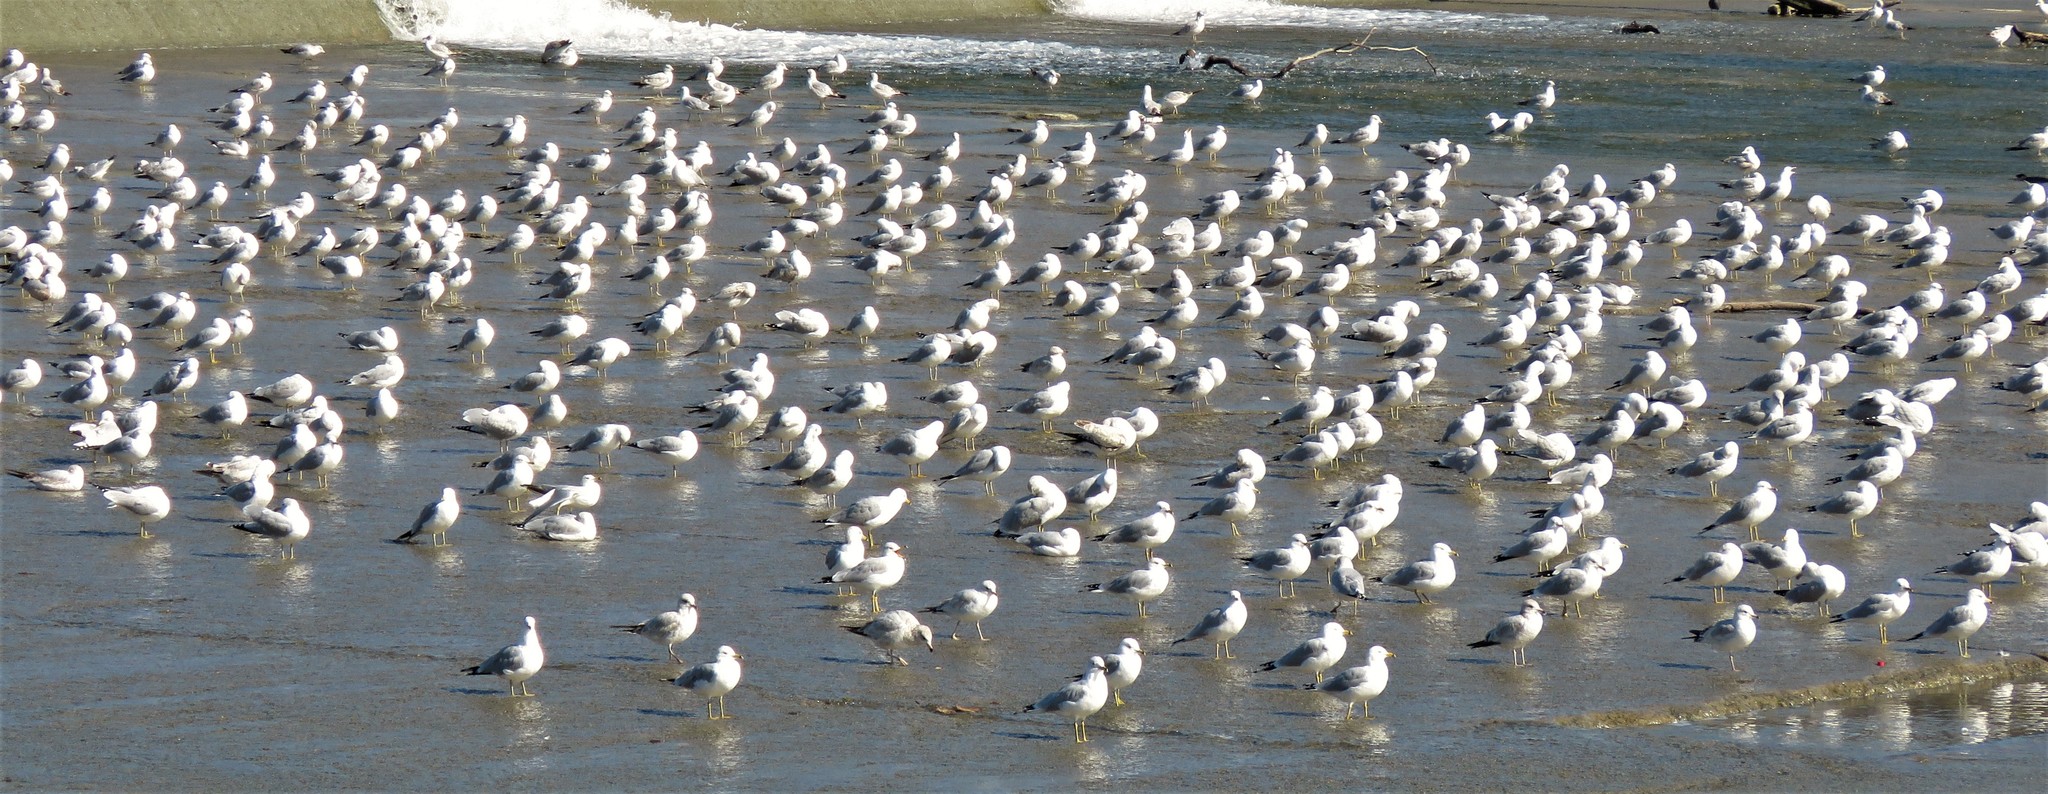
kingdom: Animalia
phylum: Chordata
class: Aves
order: Charadriiformes
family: Laridae
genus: Larus
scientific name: Larus delawarensis
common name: Ring-billed gull
